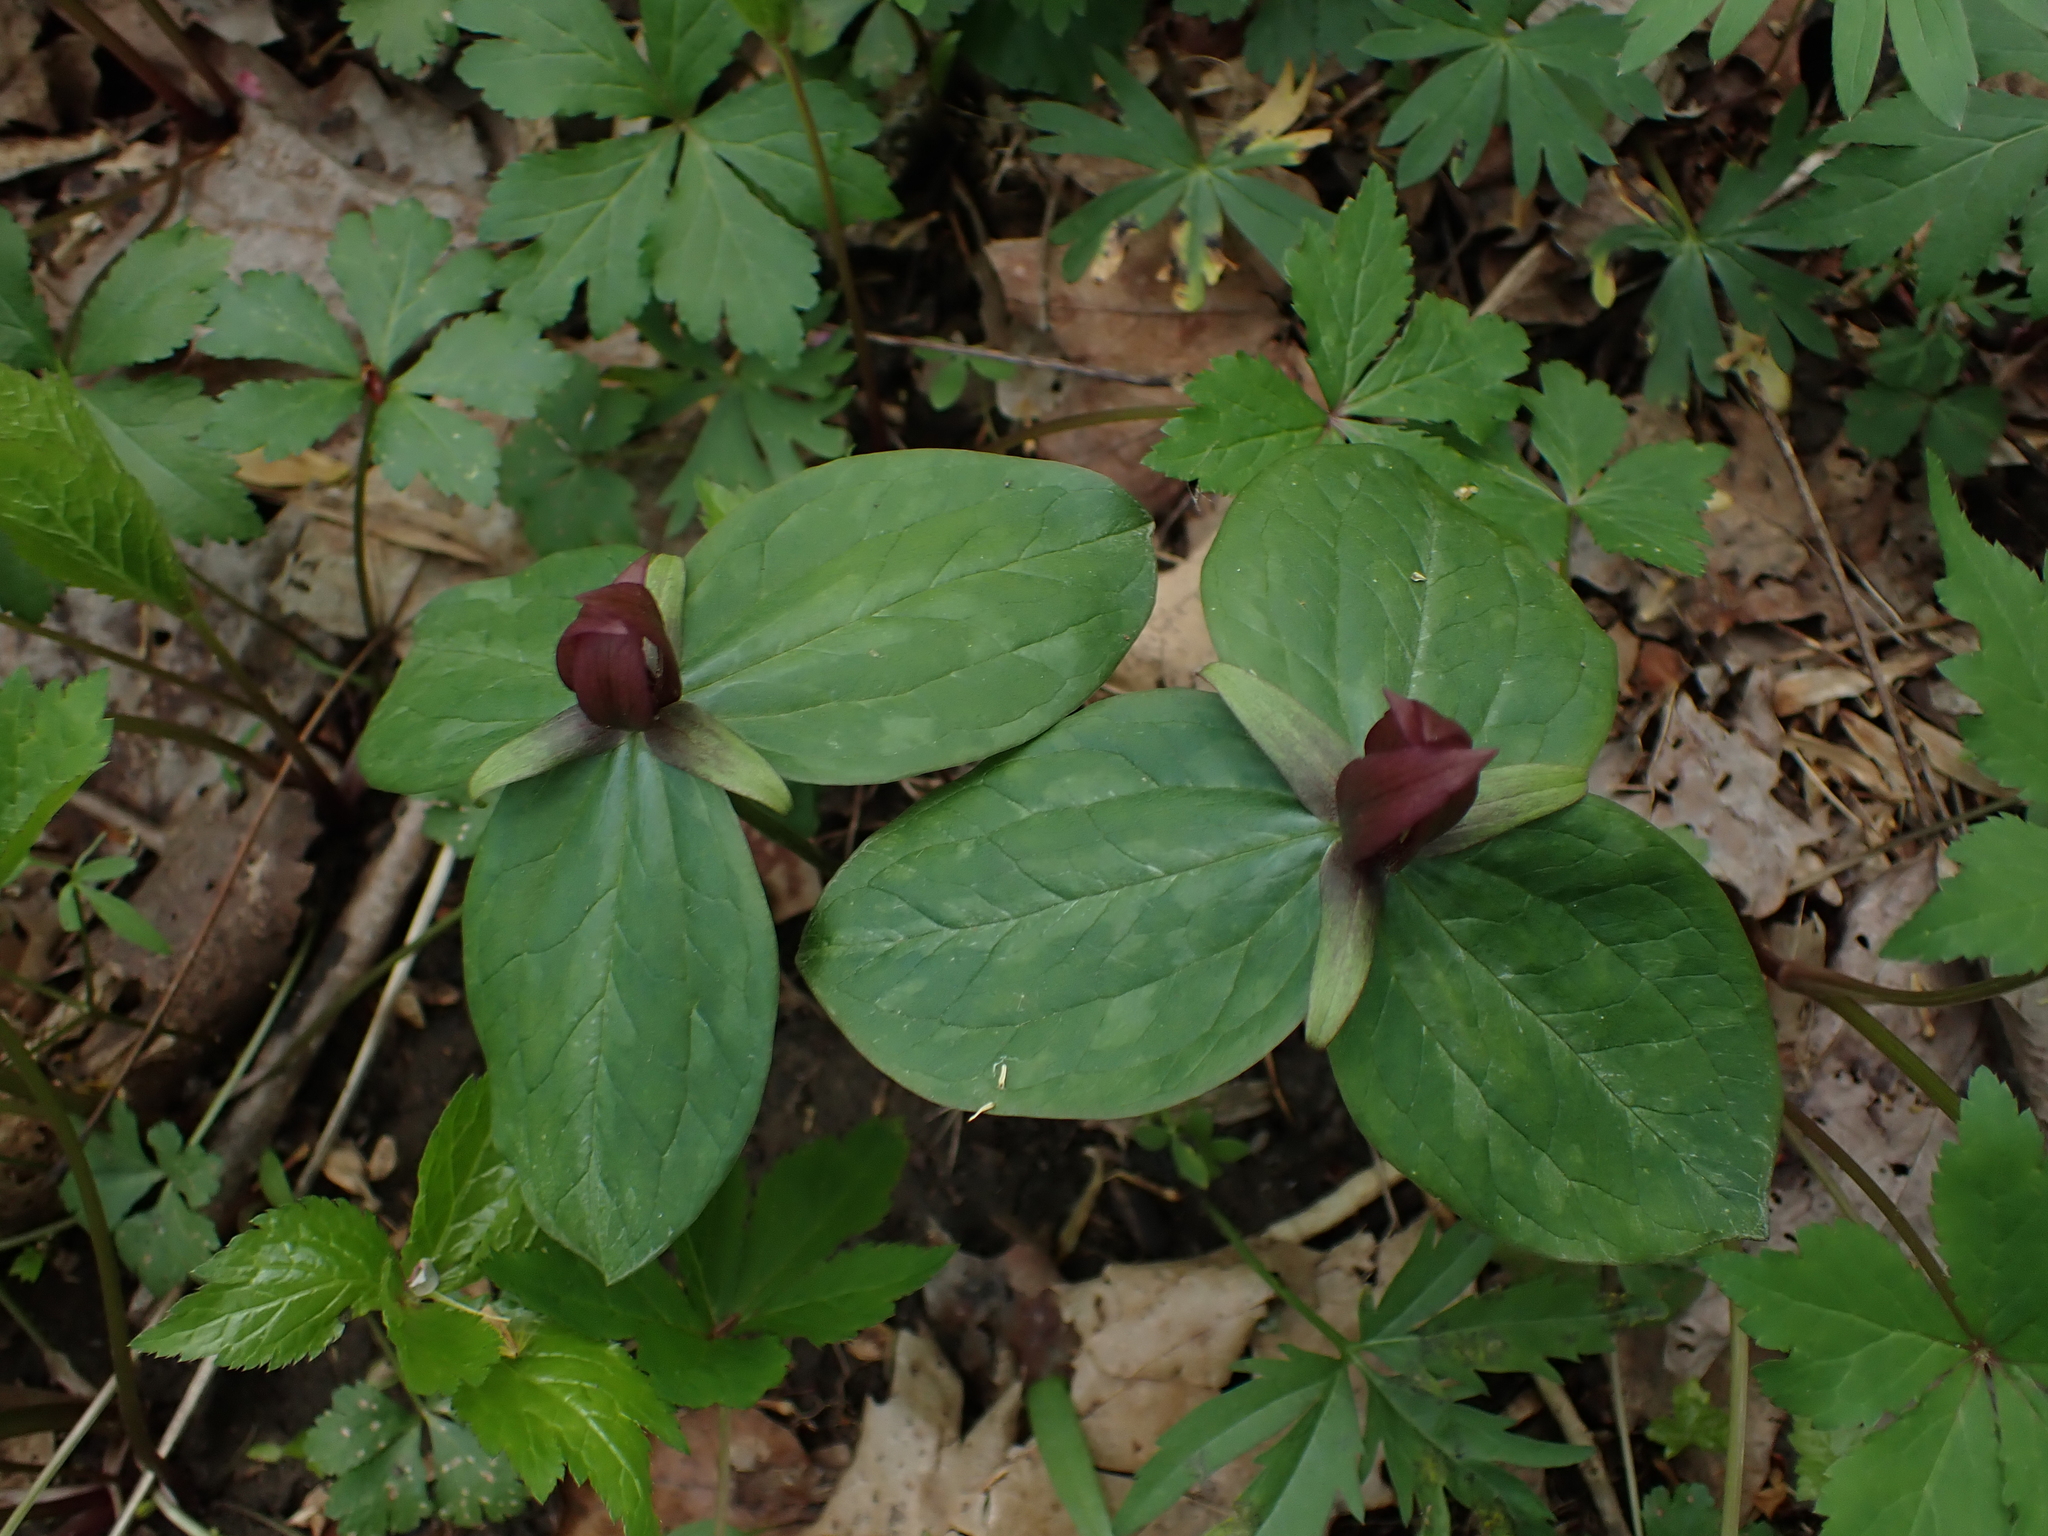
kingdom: Plantae
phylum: Tracheophyta
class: Liliopsida
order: Liliales
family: Melanthiaceae
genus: Trillium
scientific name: Trillium sessile
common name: Sessile trillium
